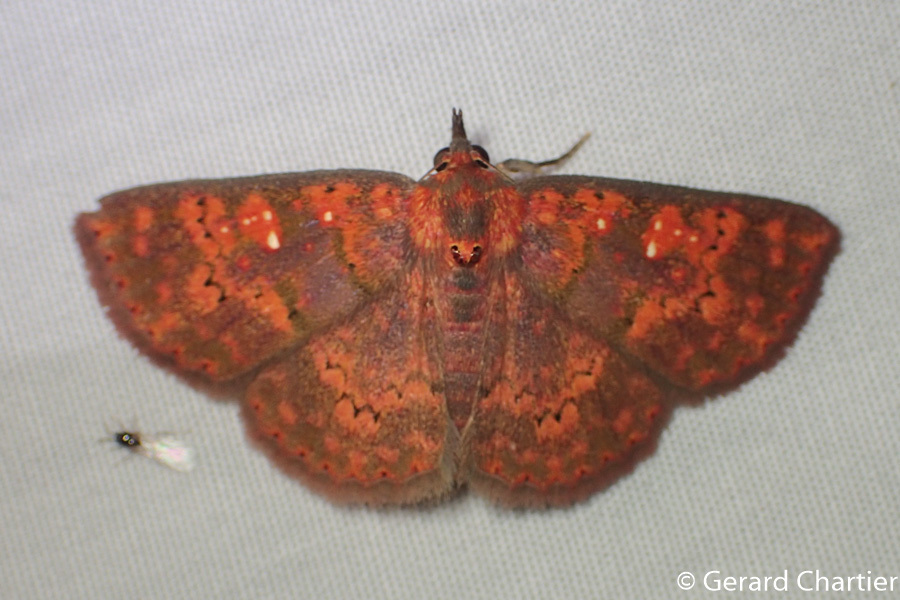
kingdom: Animalia
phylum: Arthropoda
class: Insecta
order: Lepidoptera
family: Erebidae
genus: Sarobides
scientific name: Sarobides inconclusa
